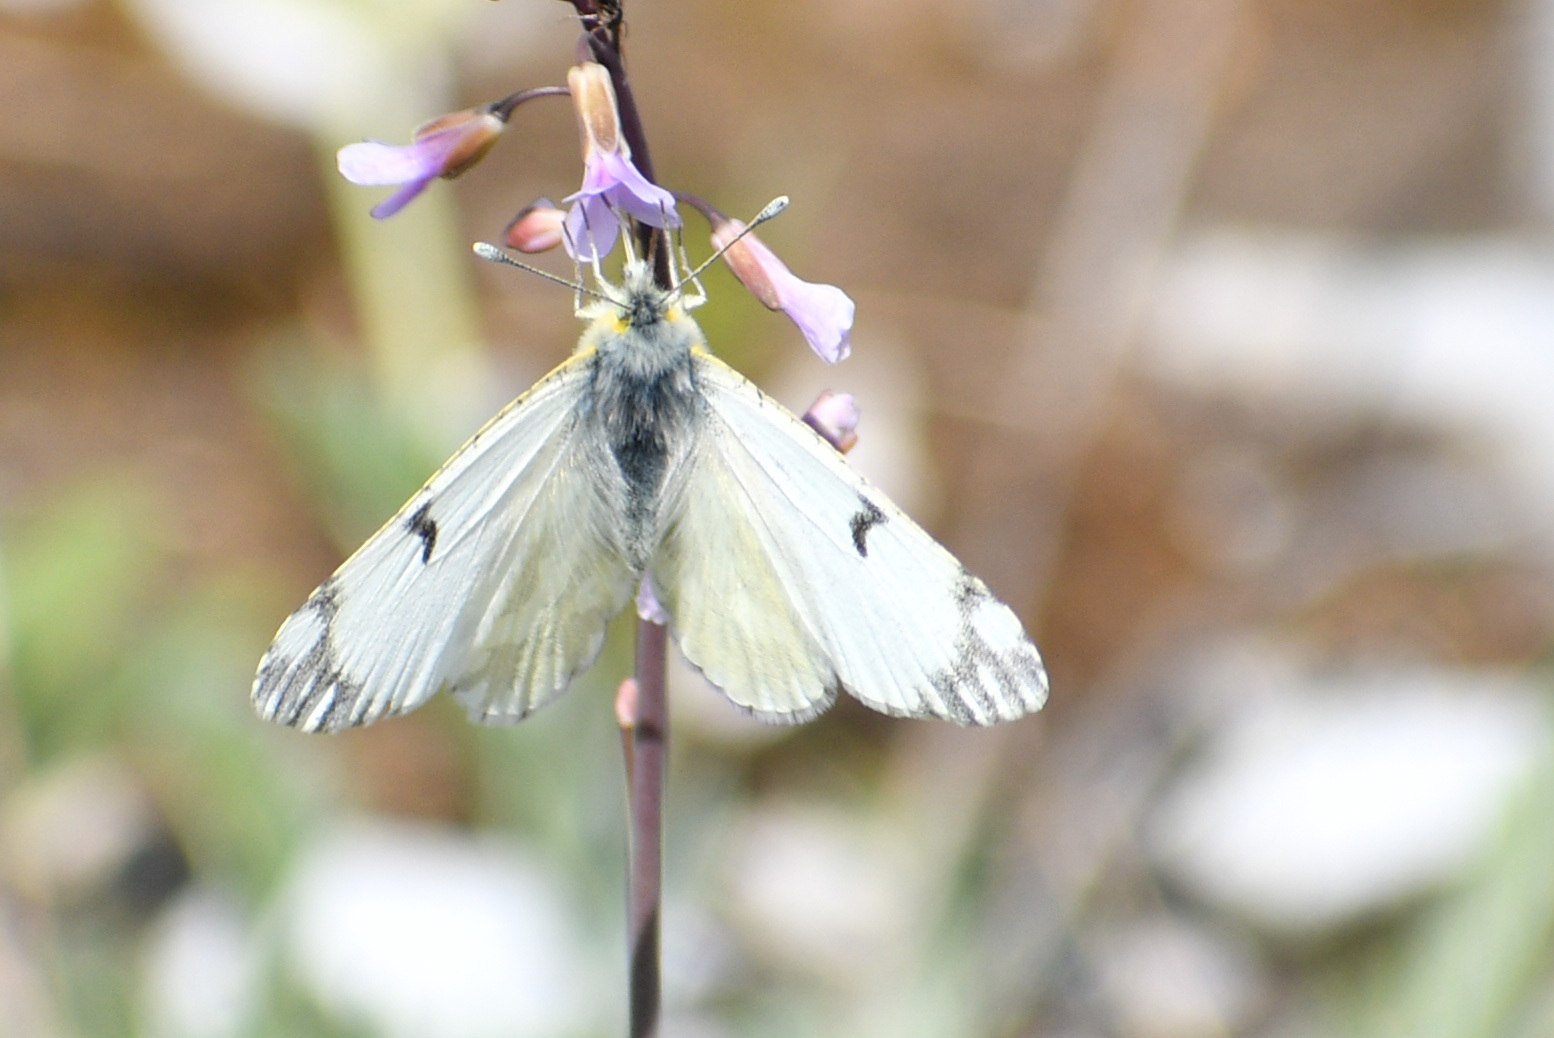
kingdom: Animalia
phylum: Arthropoda
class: Insecta
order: Lepidoptera
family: Pieridae
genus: Euchloe
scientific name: Euchloe ausonides
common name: Creamy marblewing
